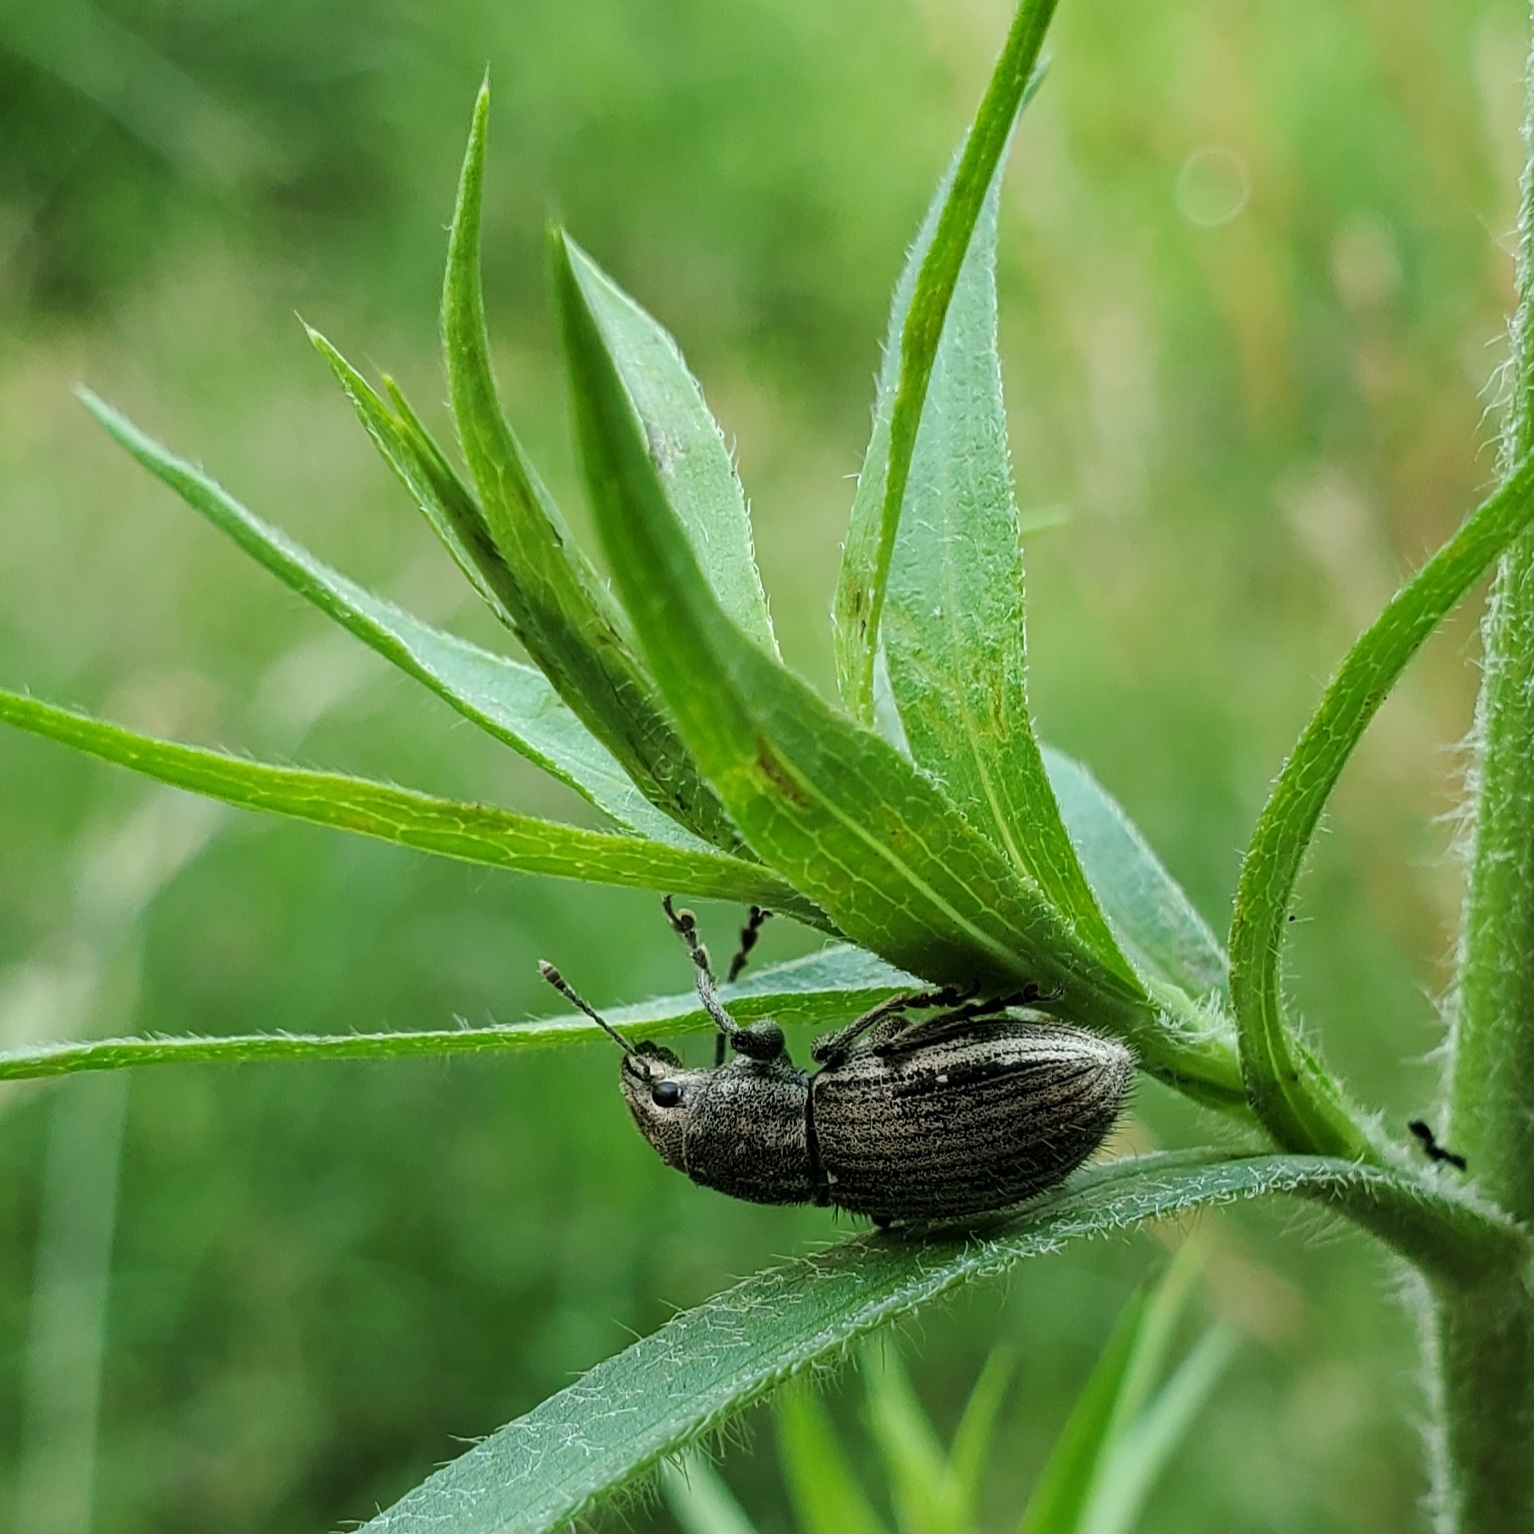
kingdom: Animalia
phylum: Arthropoda
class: Insecta
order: Coleoptera
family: Curculionidae
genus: Naupactus
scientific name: Naupactus leucoloma
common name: Whitefringed beetle
